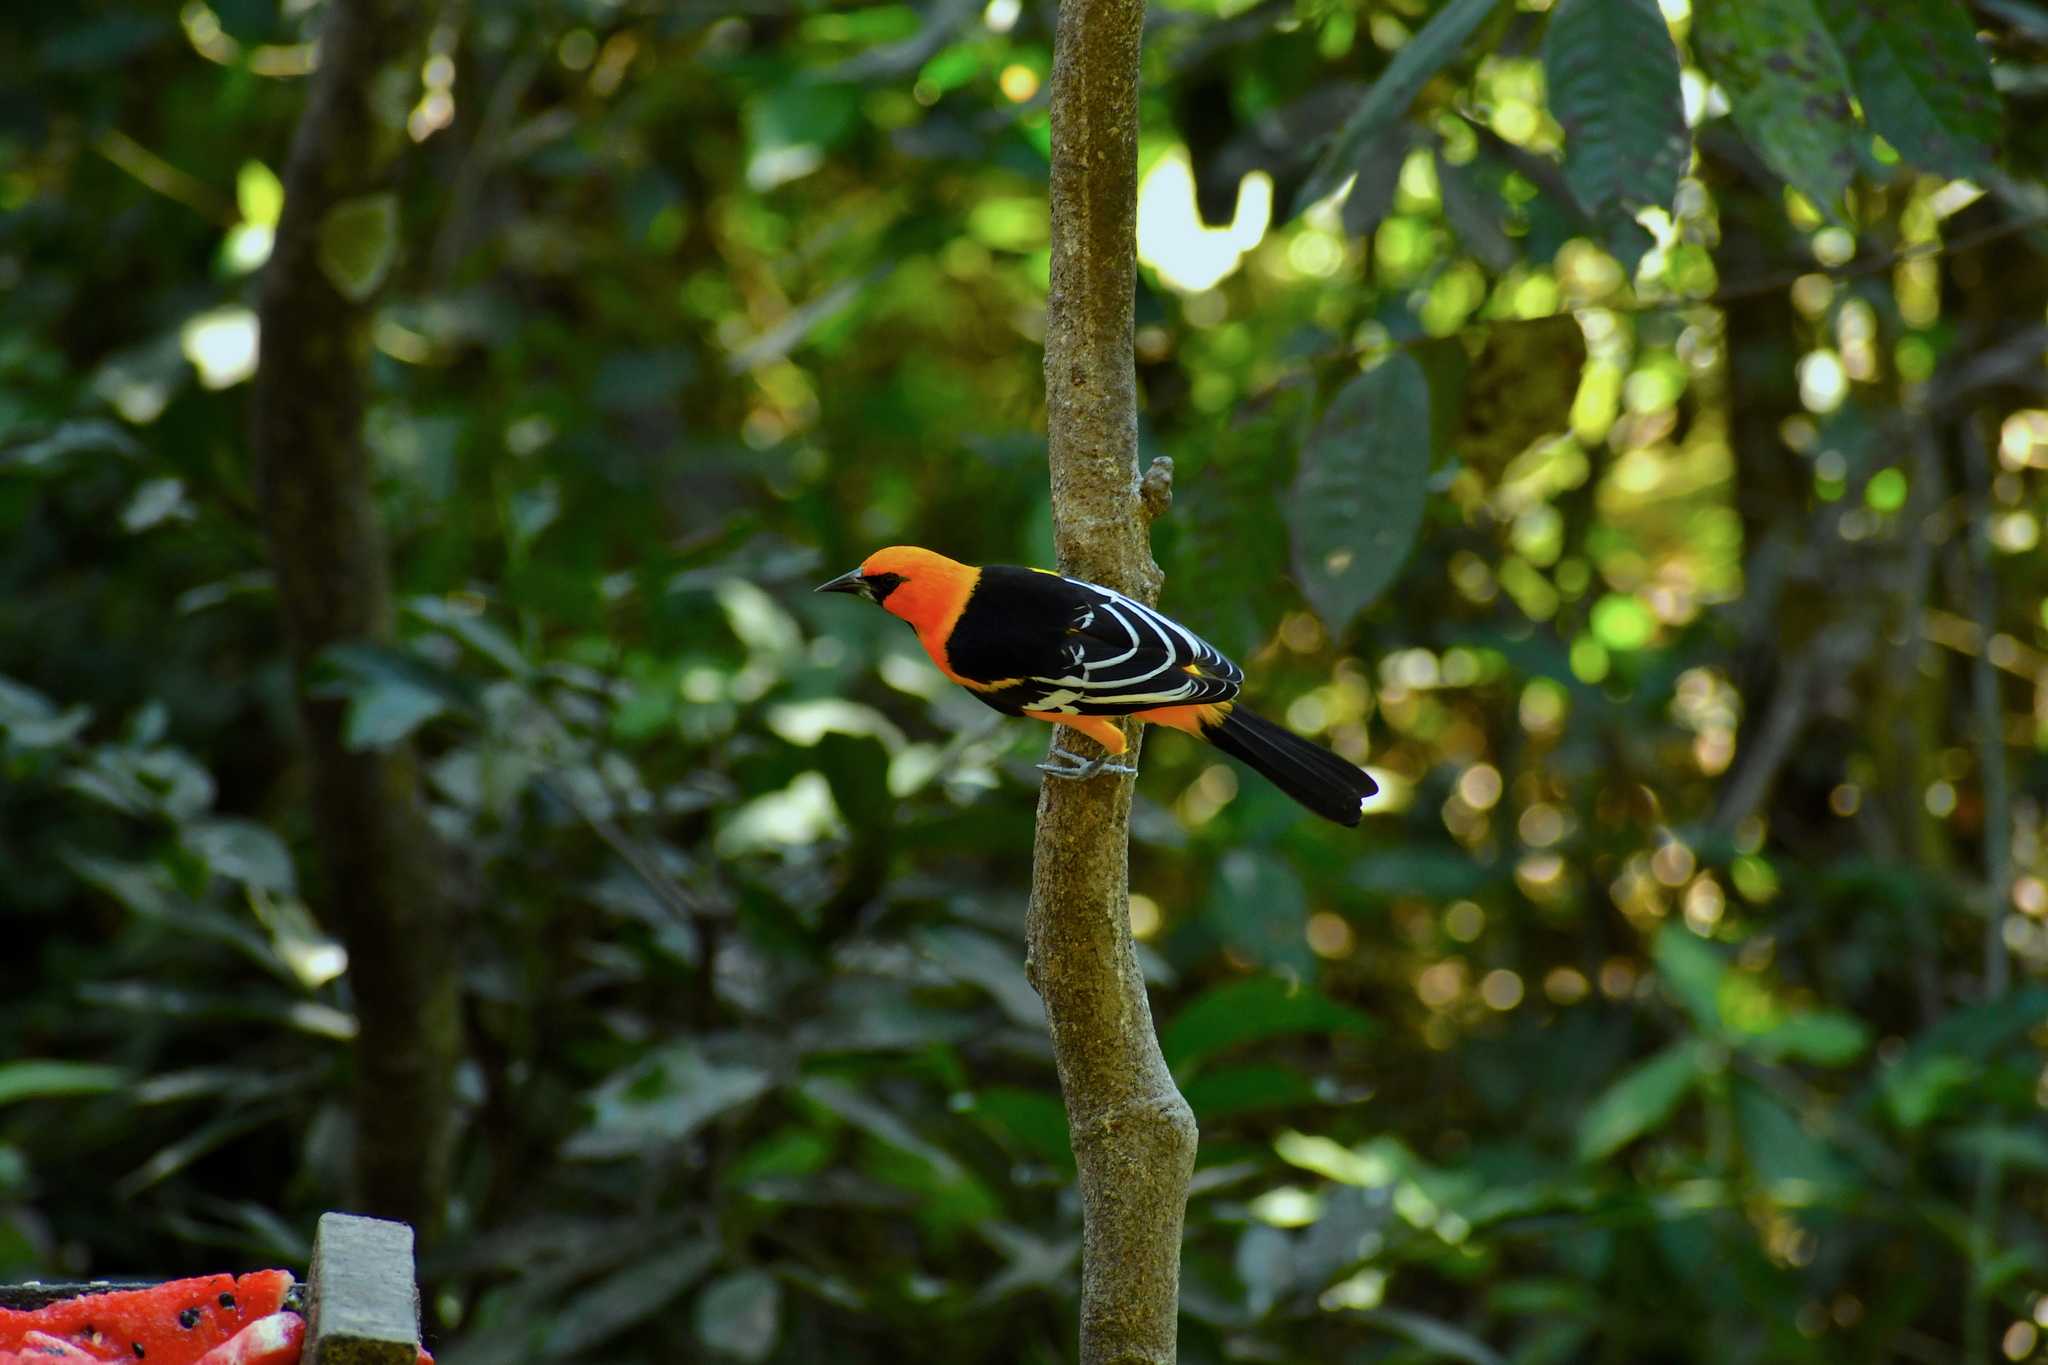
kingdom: Animalia
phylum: Chordata
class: Aves
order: Passeriformes
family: Icteridae
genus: Icterus
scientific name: Icterus gularis
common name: Altamira oriole
